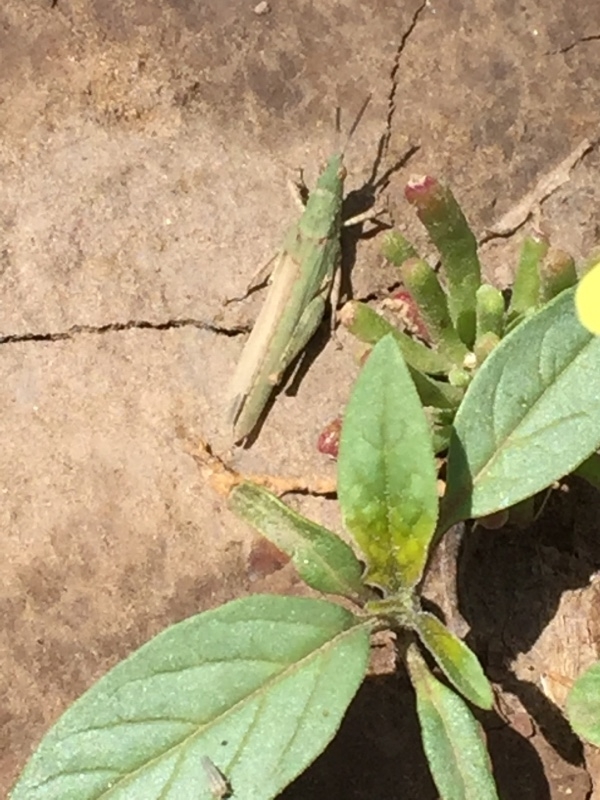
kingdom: Animalia
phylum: Arthropoda
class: Insecta
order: Orthoptera
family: Pyrgomorphidae
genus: Pyrgomorpha
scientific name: Pyrgomorpha conica
